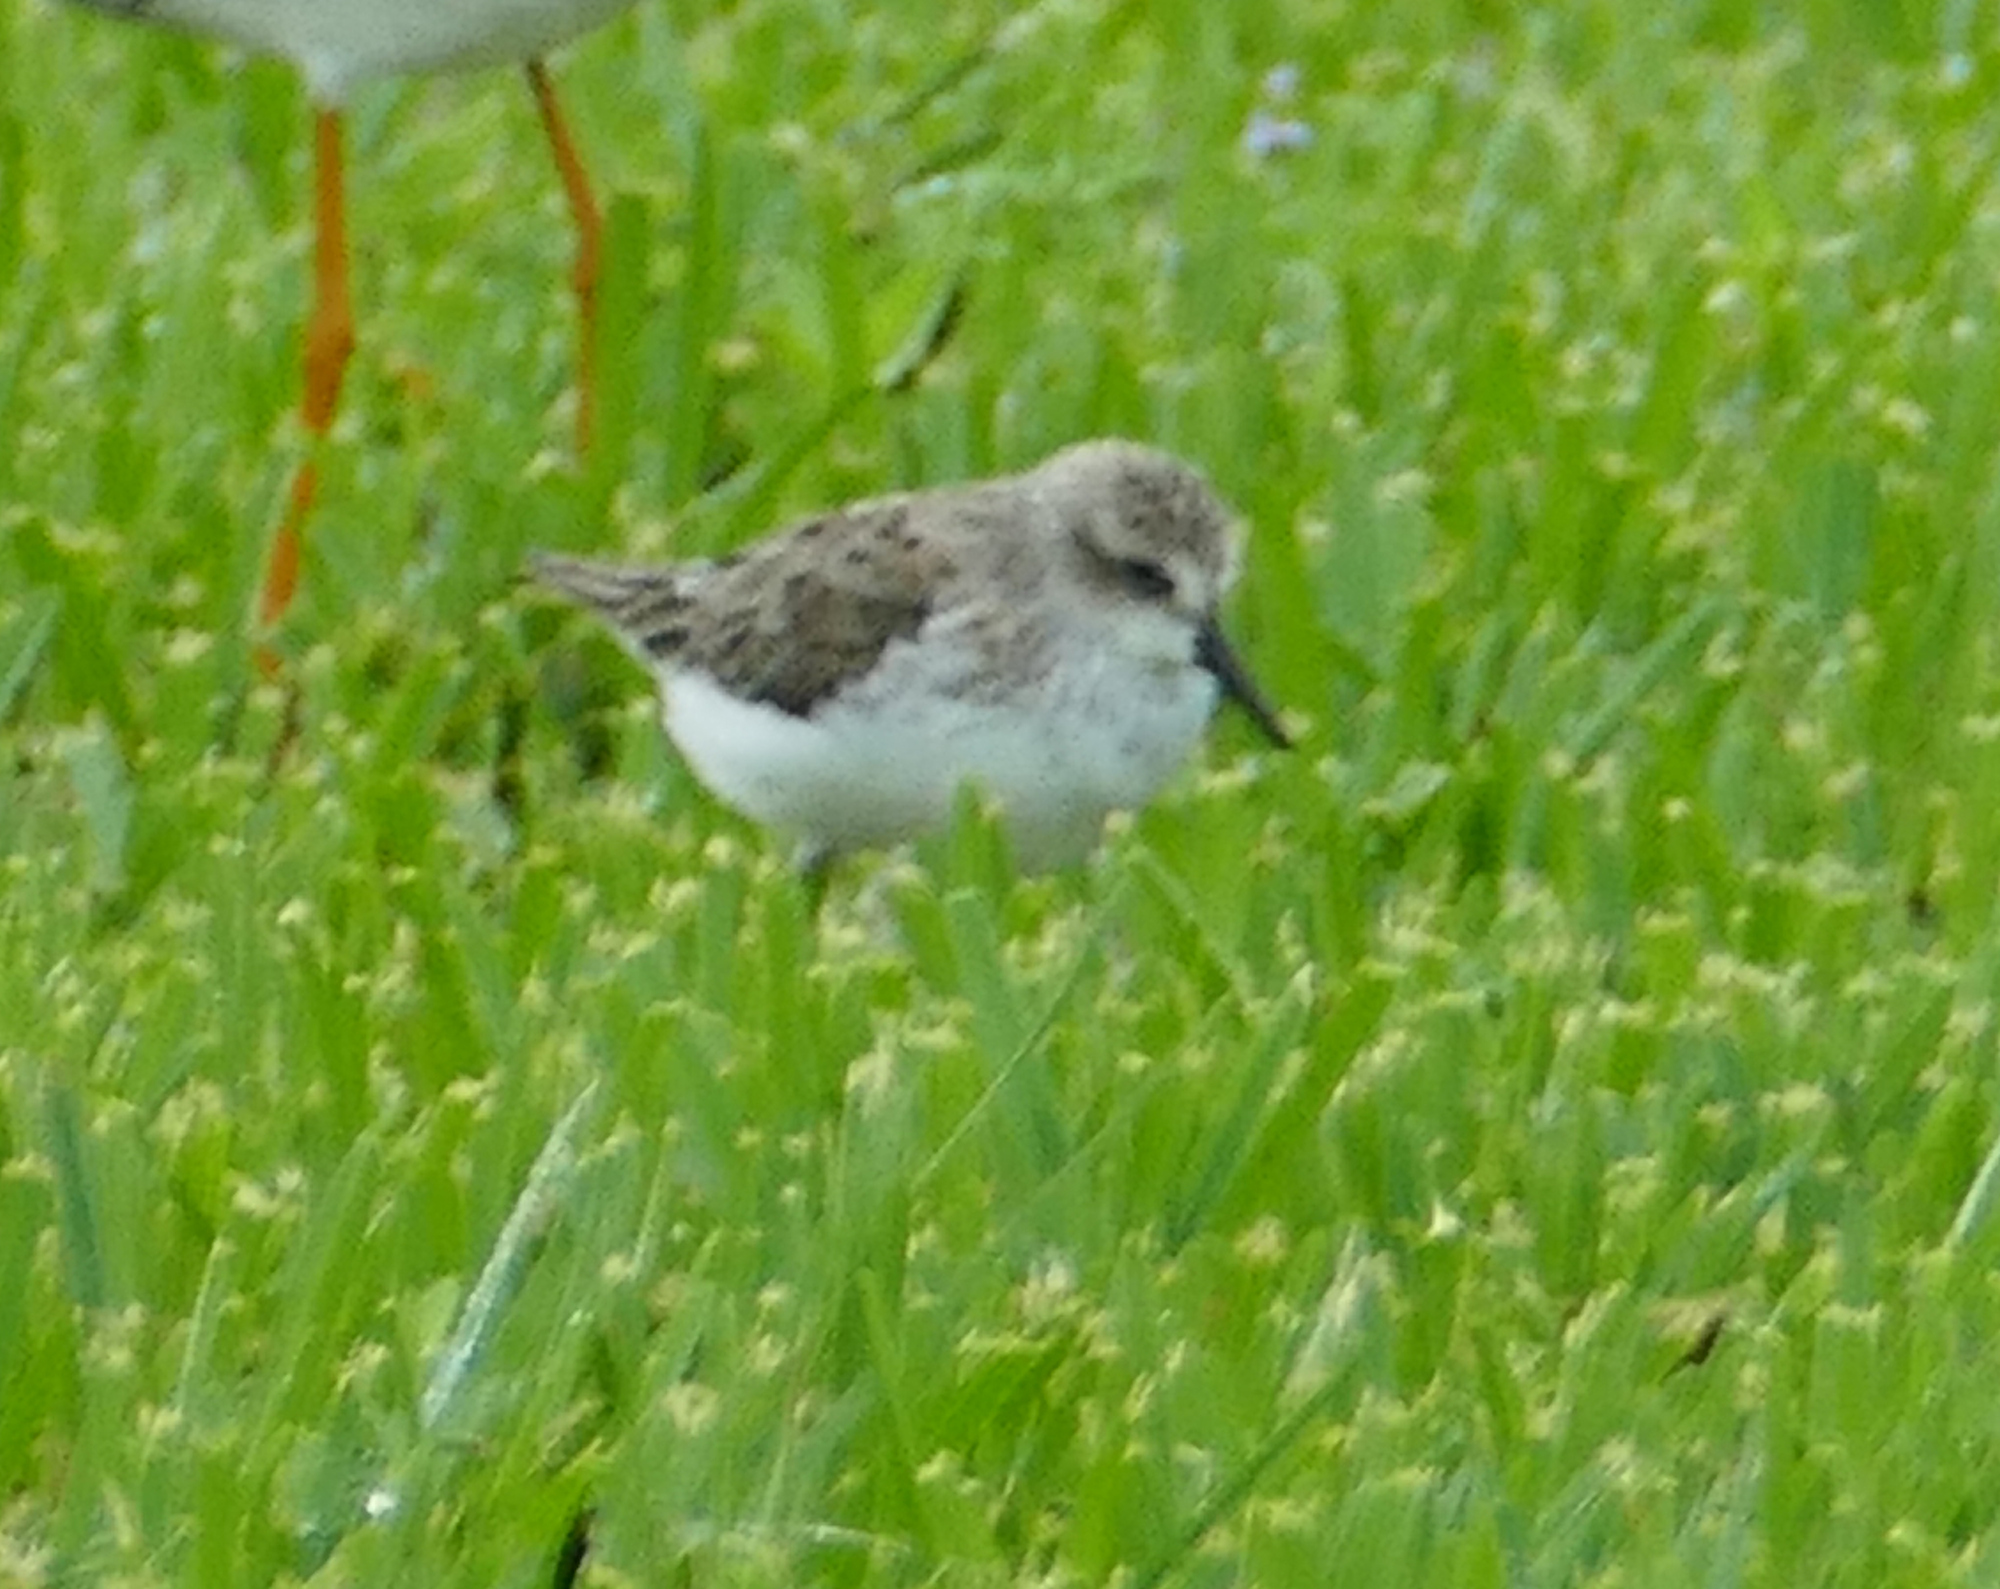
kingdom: Animalia
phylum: Chordata
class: Aves
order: Charadriiformes
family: Scolopacidae
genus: Calidris
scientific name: Calidris pusilla
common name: Semipalmated sandpiper
